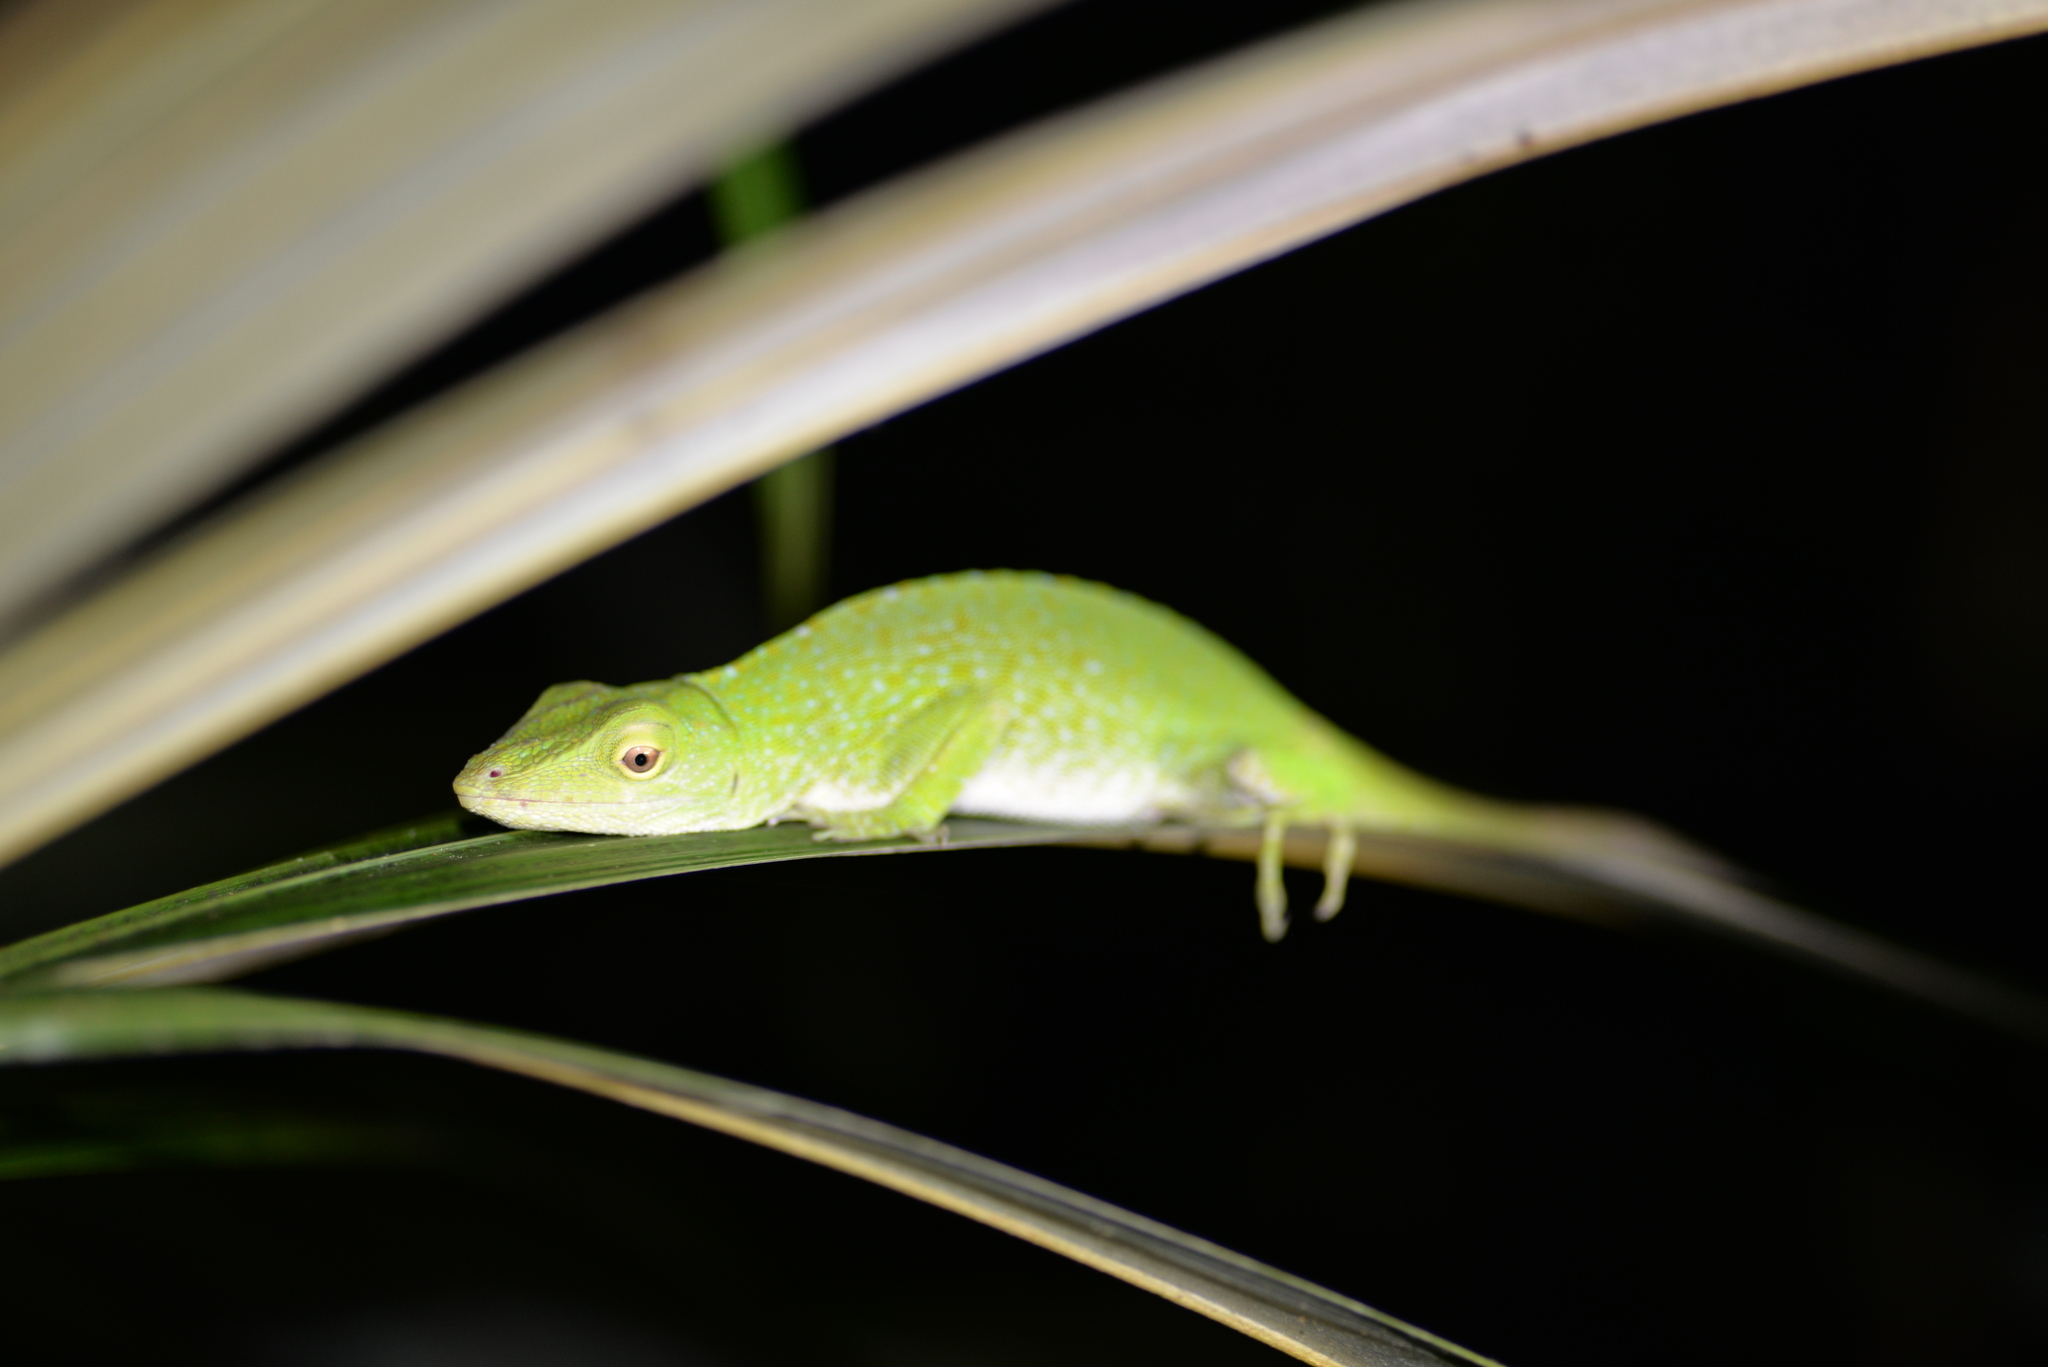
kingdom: Animalia
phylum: Chordata
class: Squamata
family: Dactyloidae
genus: Anolis
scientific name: Anolis biporcatus
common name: Giant green anole
